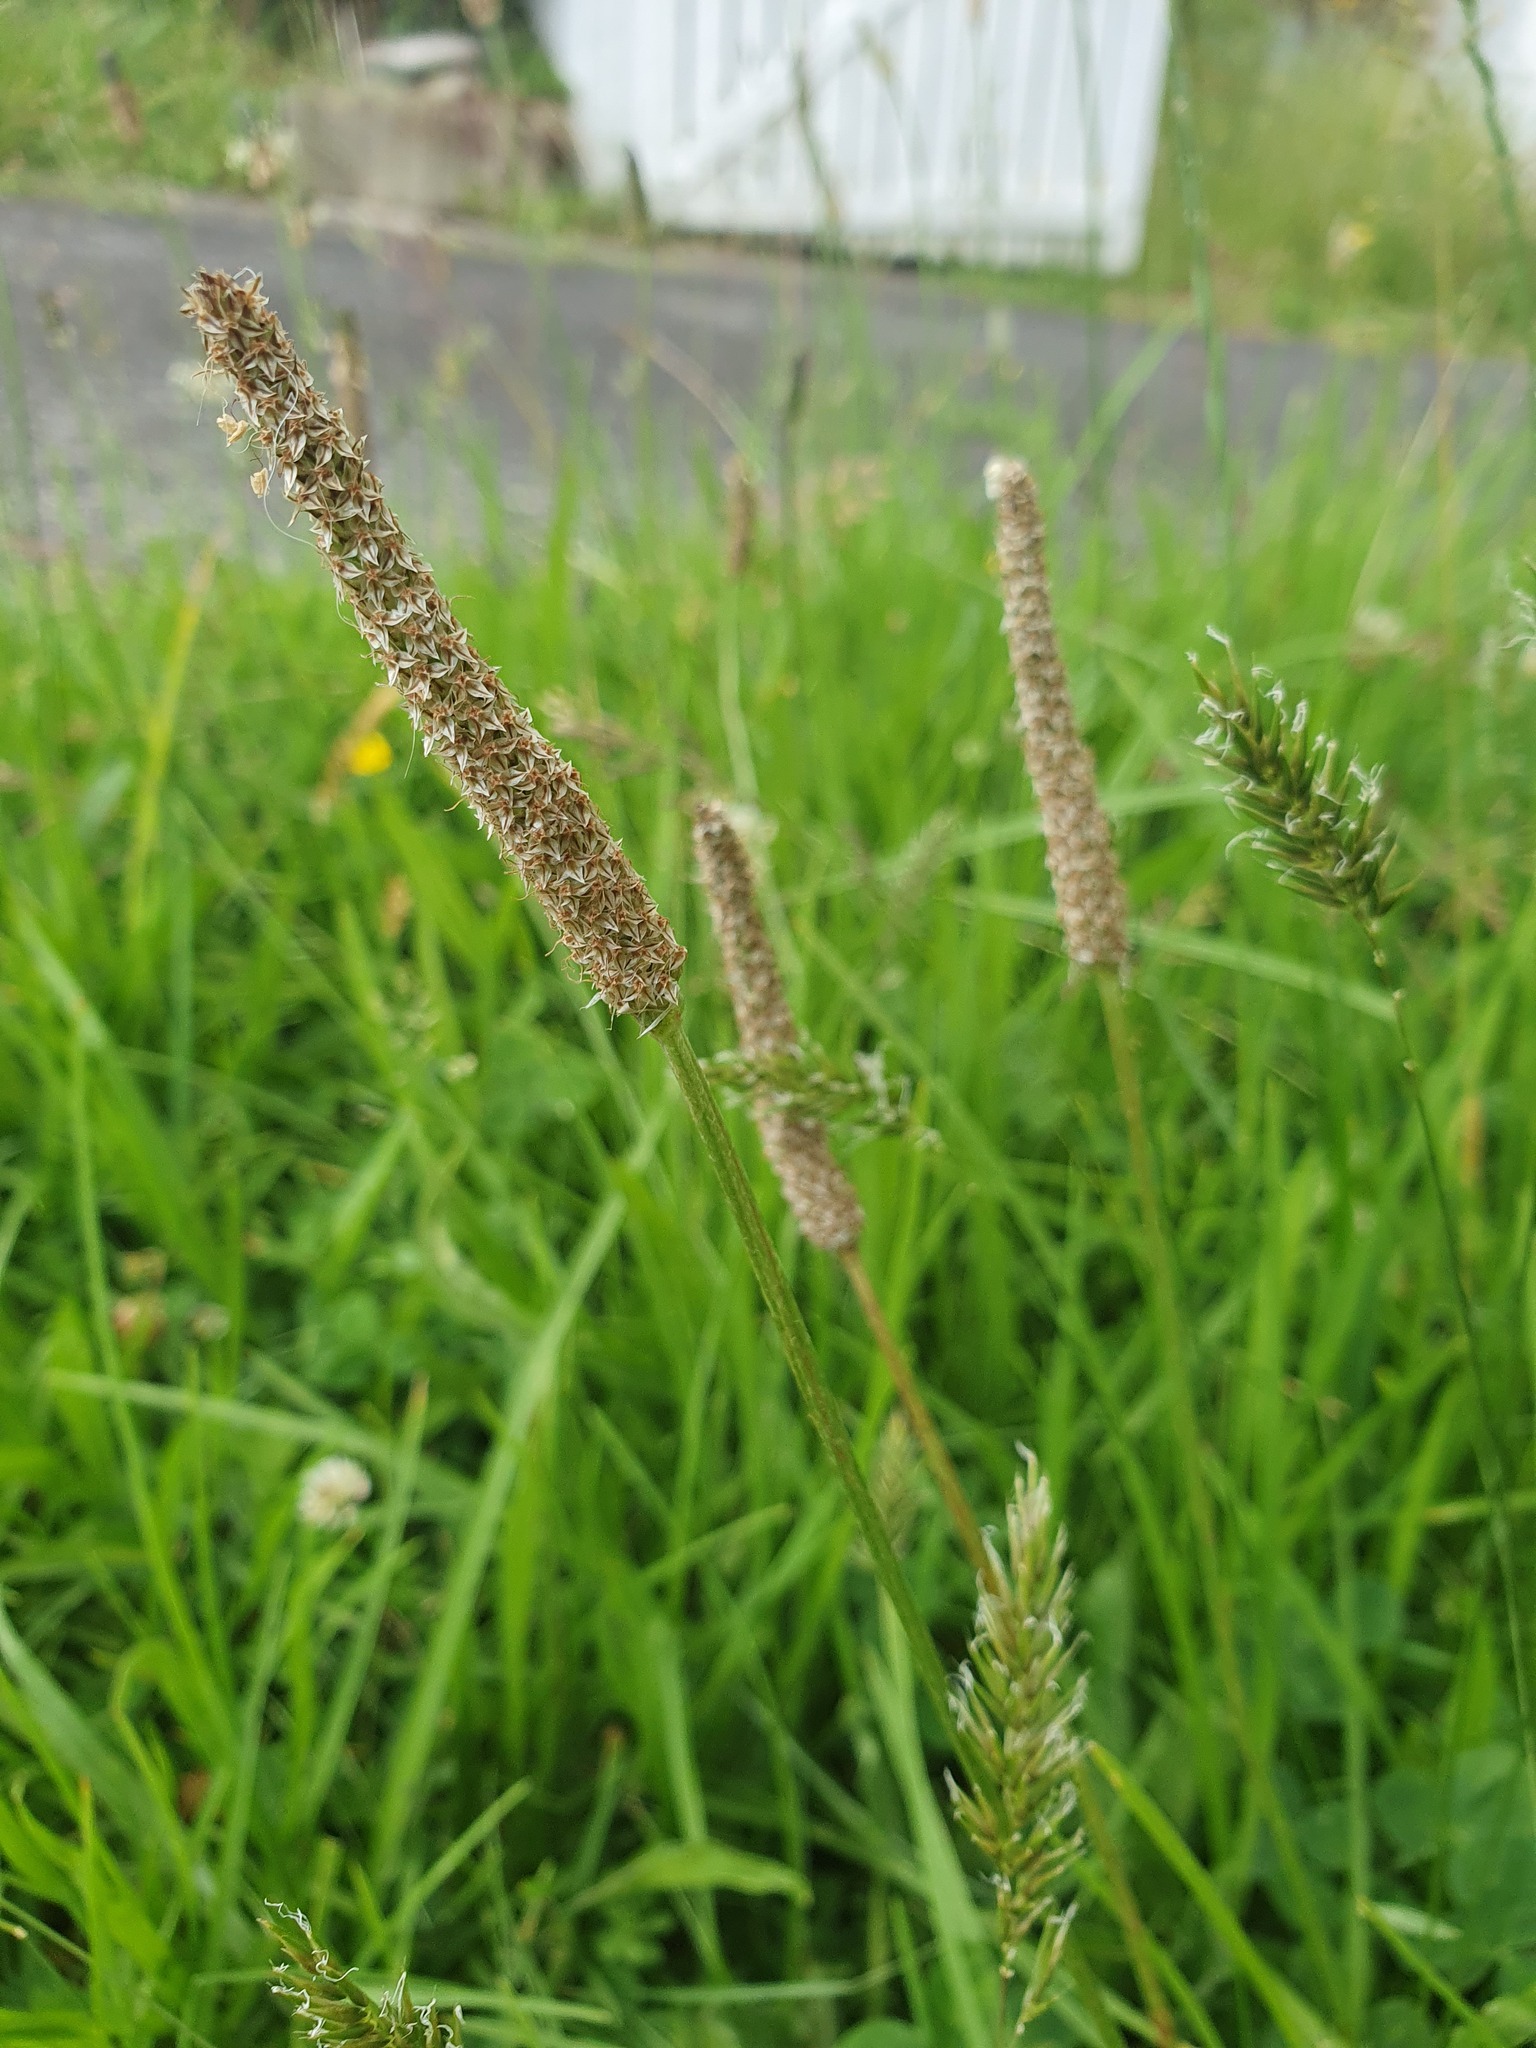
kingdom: Plantae
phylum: Tracheophyta
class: Magnoliopsida
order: Lamiales
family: Plantaginaceae
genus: Plantago
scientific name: Plantago lanceolata
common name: Ribwort plantain
